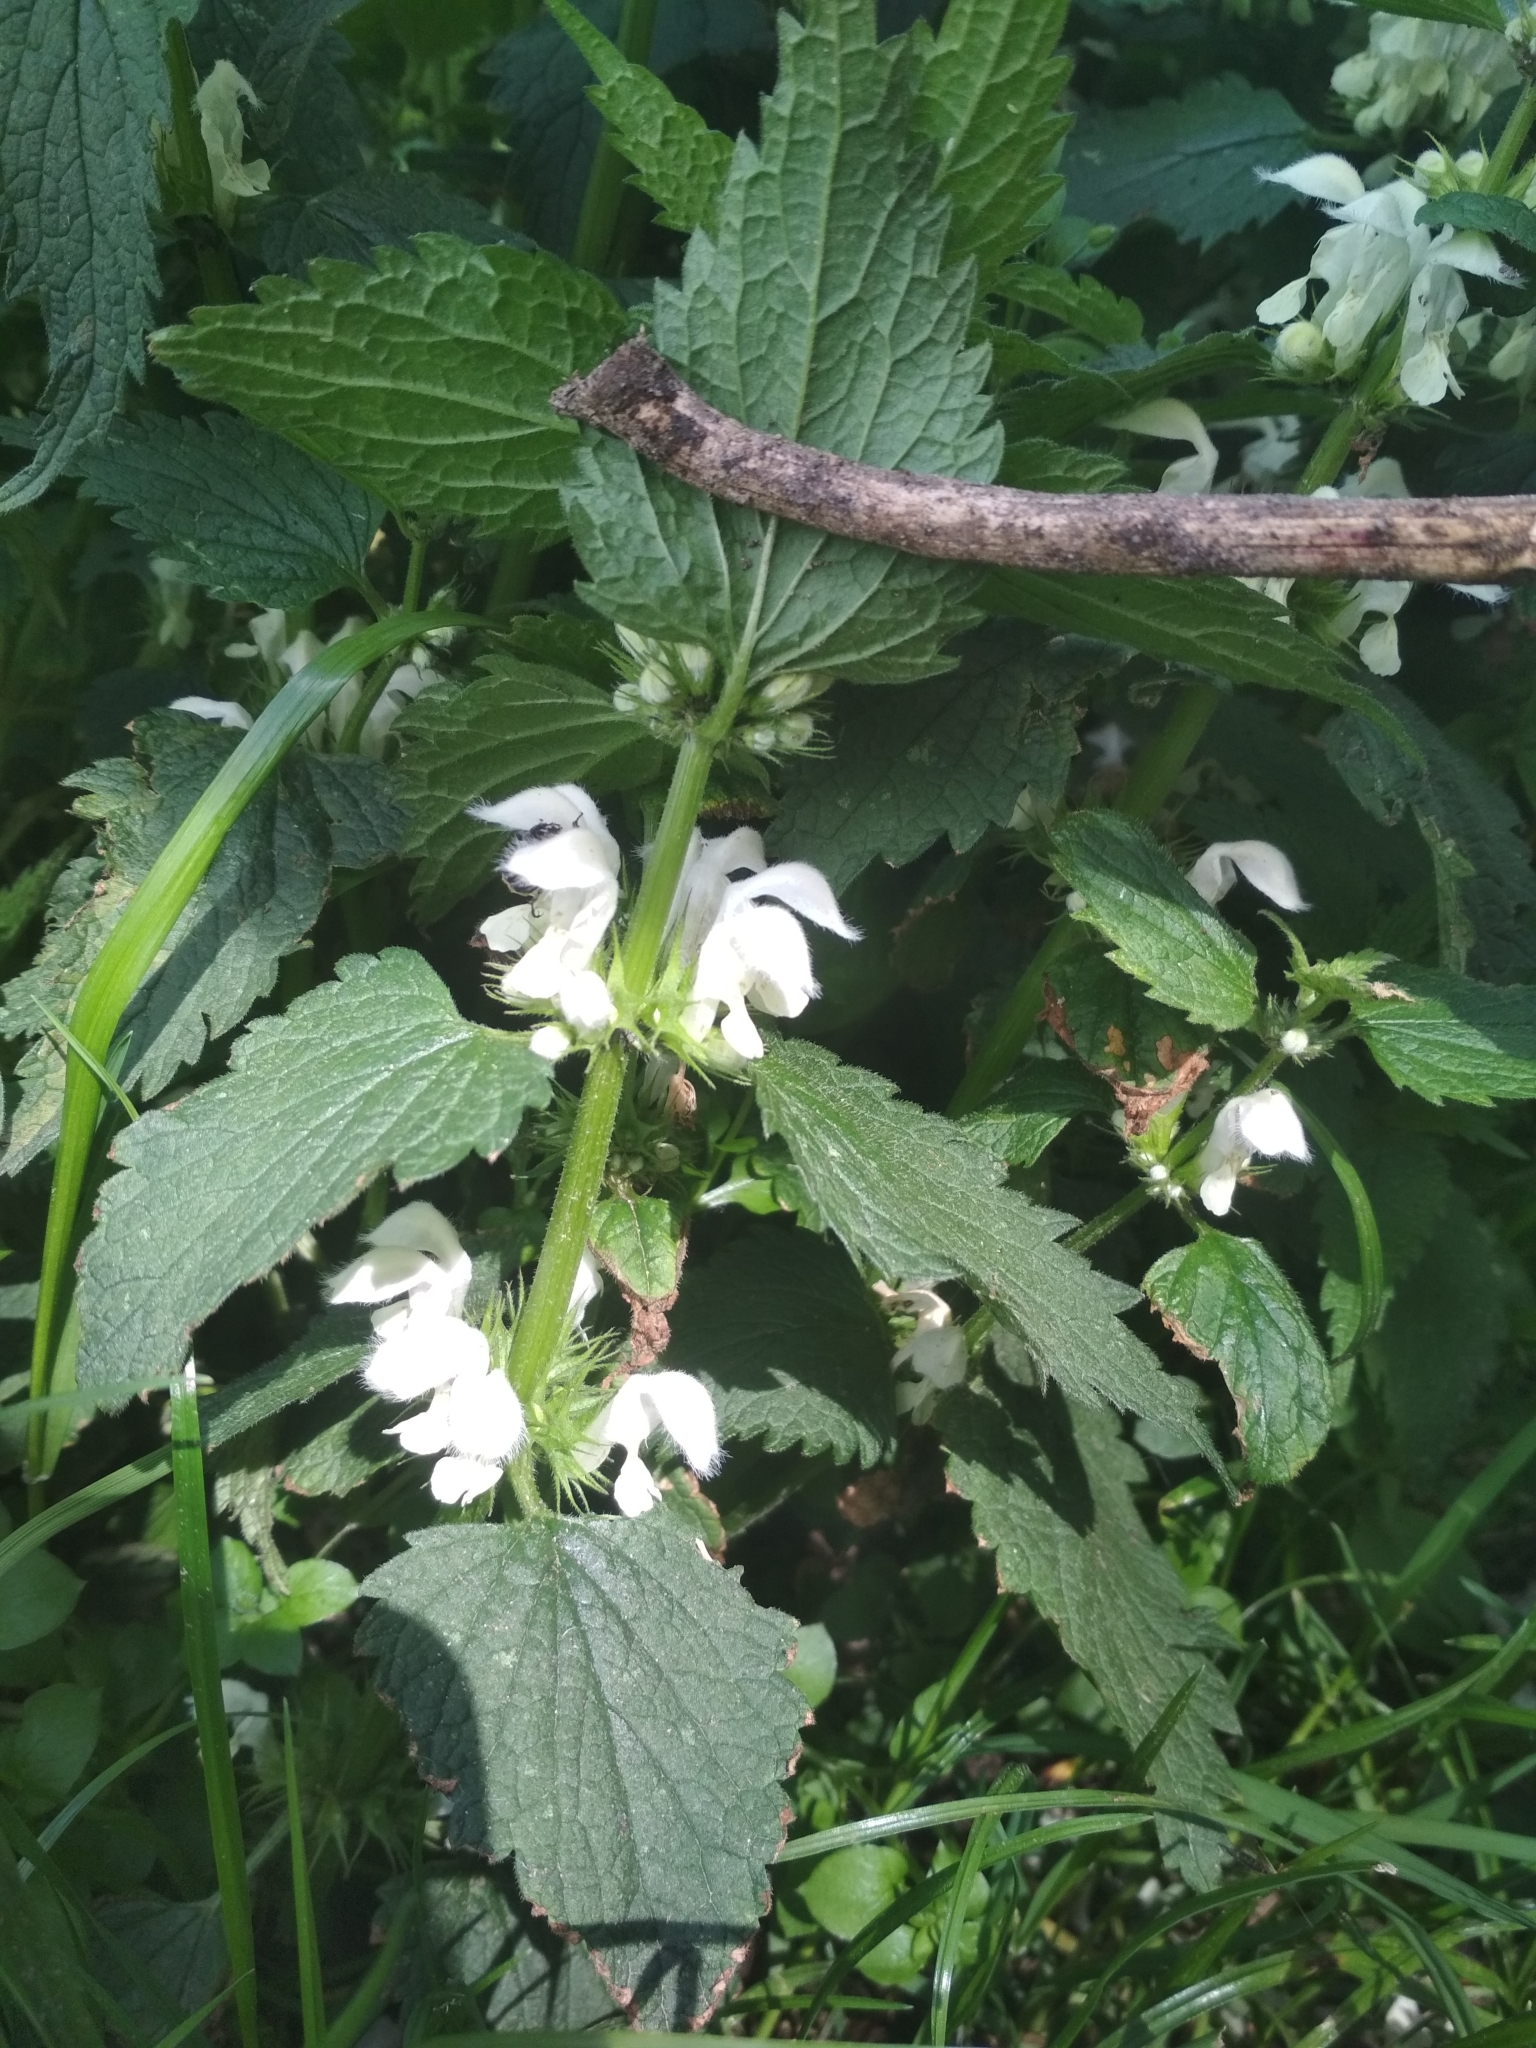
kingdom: Plantae
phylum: Tracheophyta
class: Magnoliopsida
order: Lamiales
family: Lamiaceae
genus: Lamium
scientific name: Lamium album
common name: White dead-nettle
